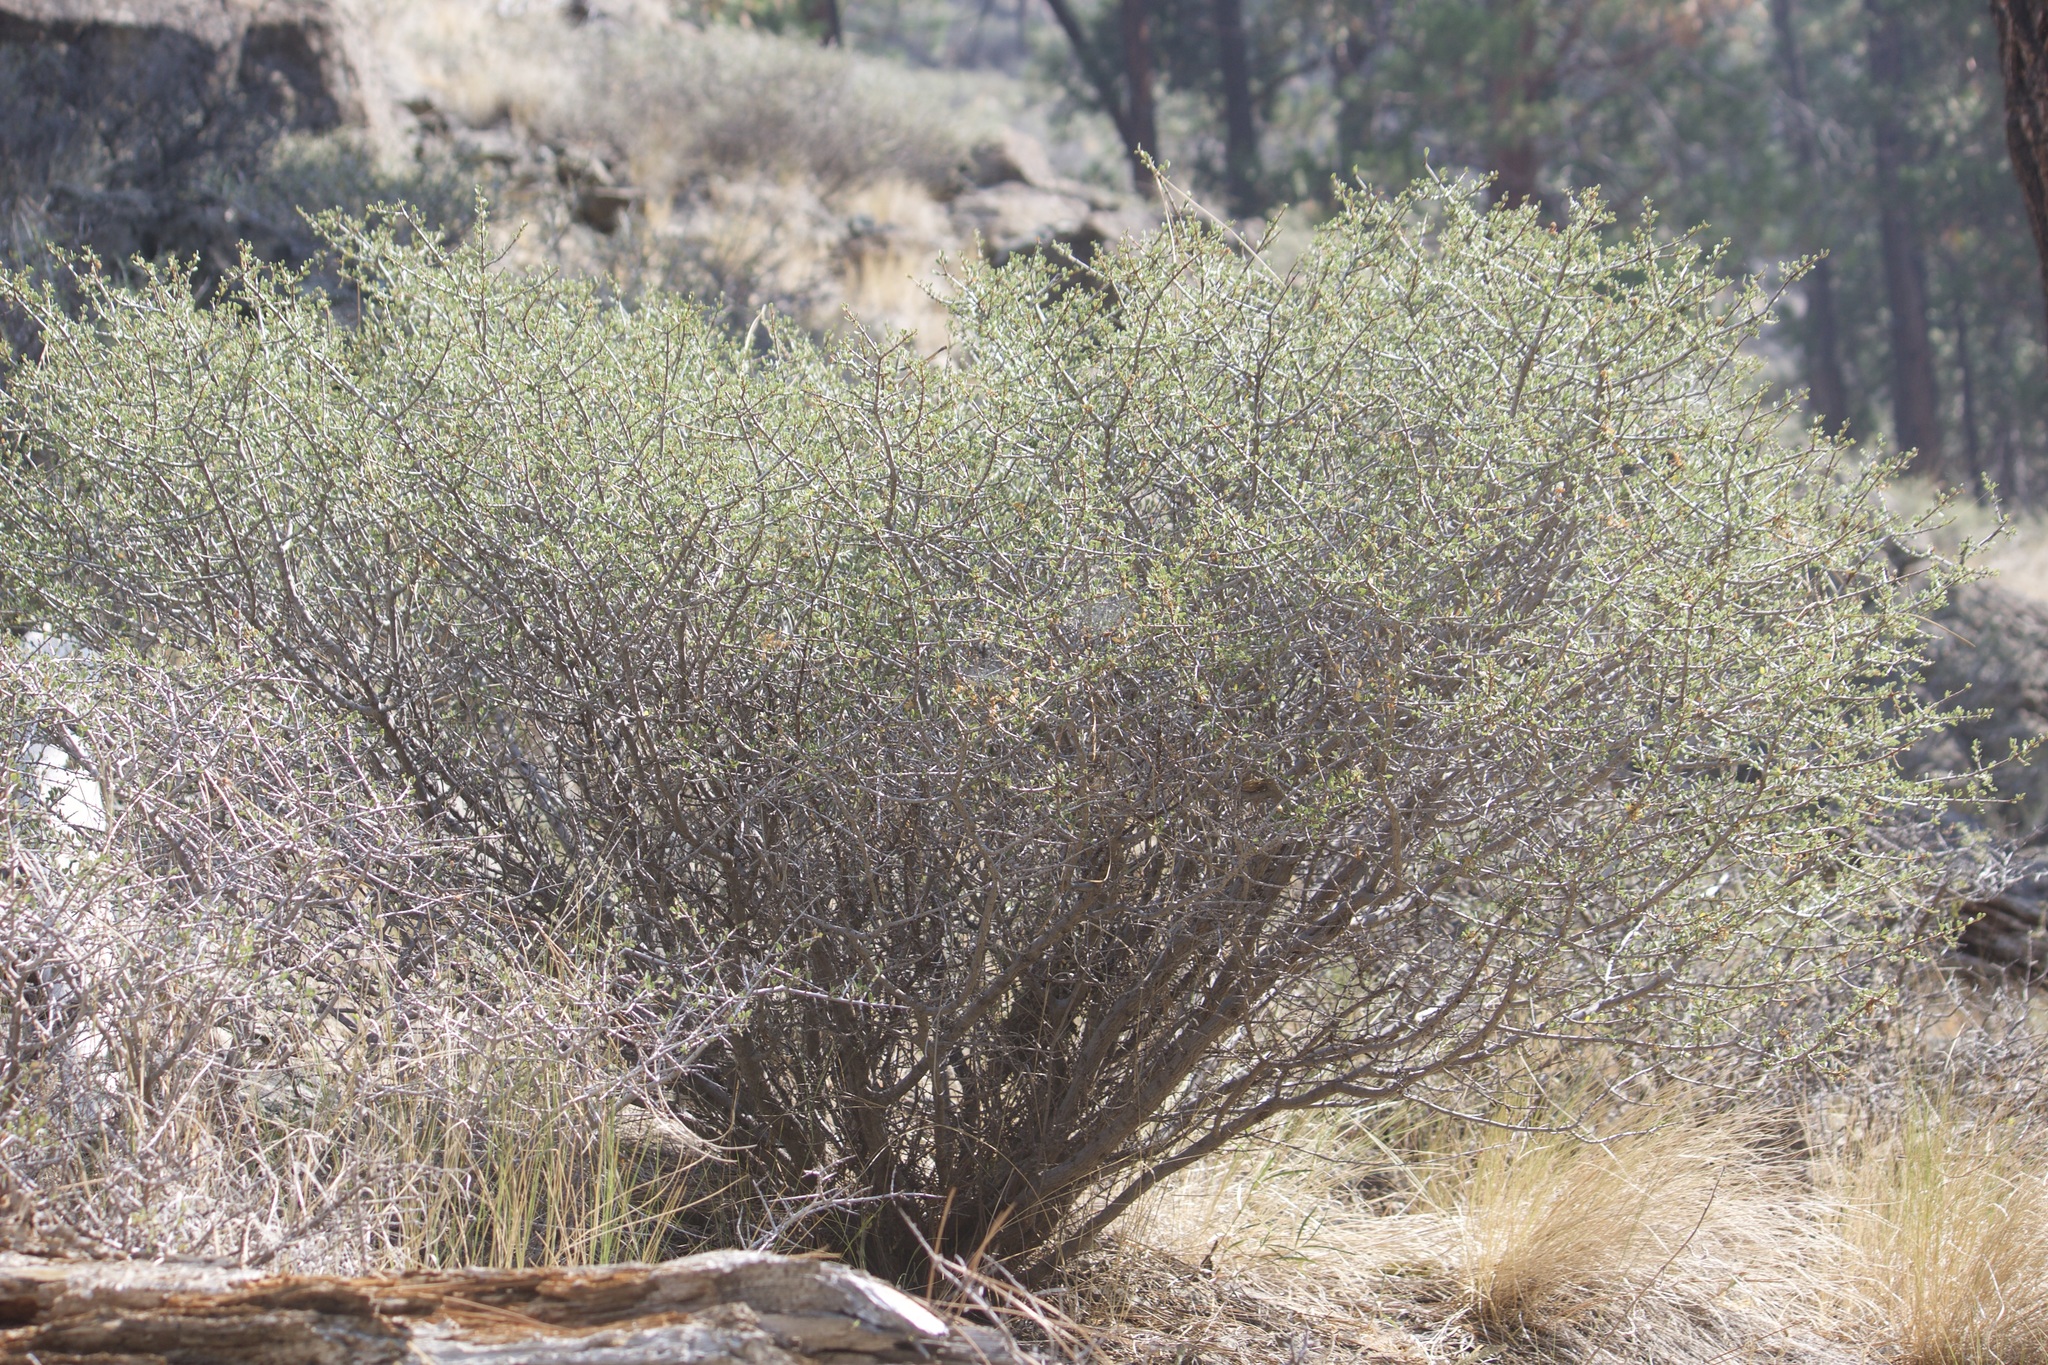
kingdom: Plantae
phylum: Tracheophyta
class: Magnoliopsida
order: Rosales
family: Rhamnaceae
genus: Ceanothus
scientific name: Ceanothus cuneatus
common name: Cuneate ceanothus
